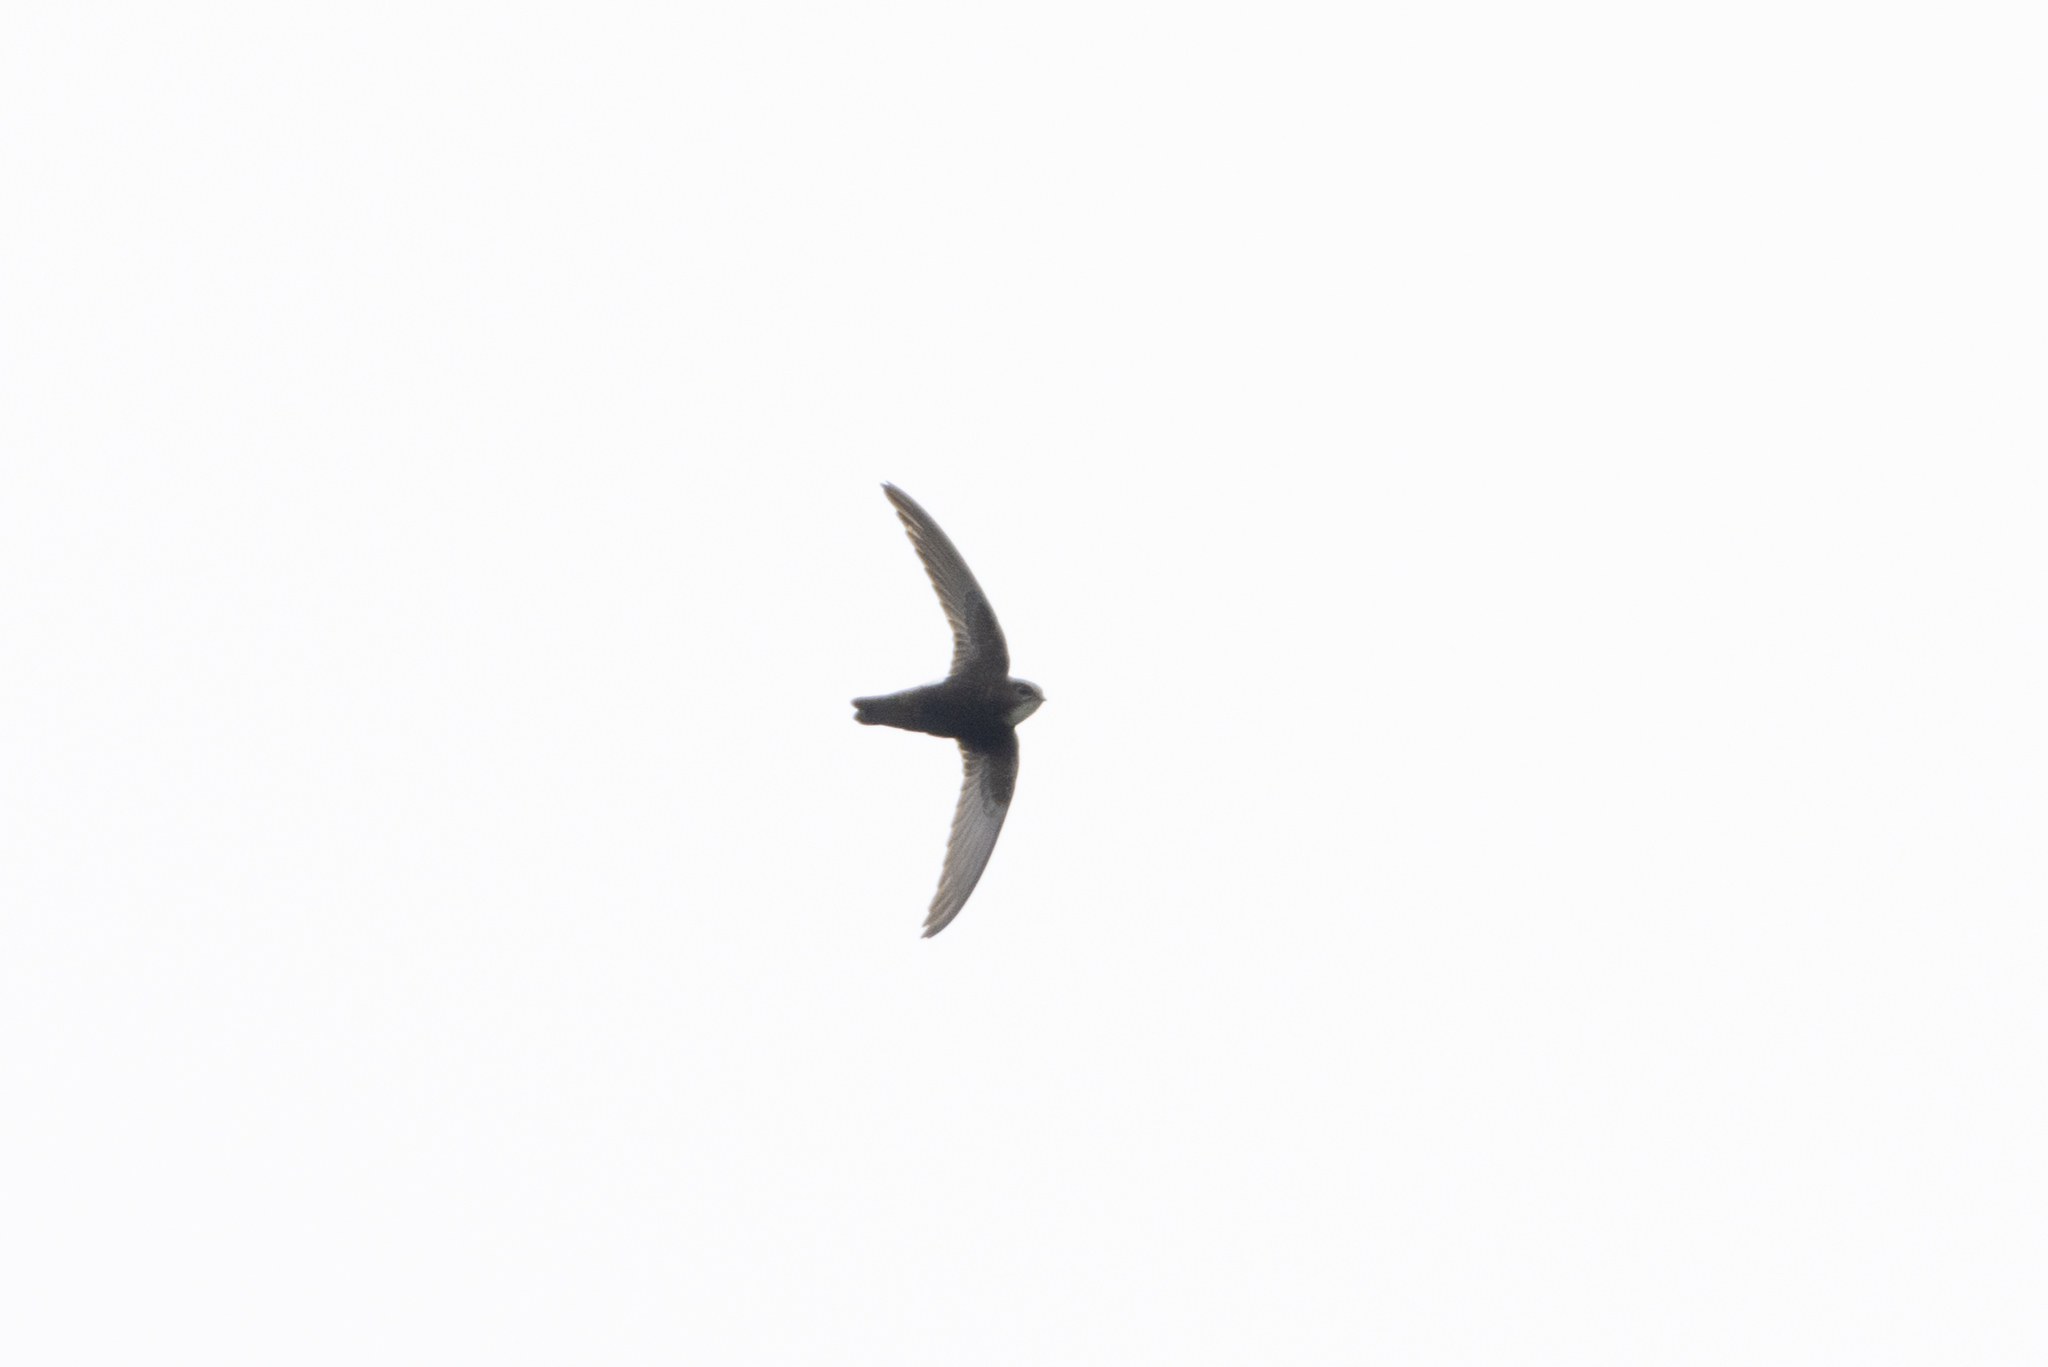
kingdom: Animalia
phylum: Chordata
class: Aves
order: Apodiformes
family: Apodidae
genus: Apus
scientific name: Apus nipalensis
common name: House swift
